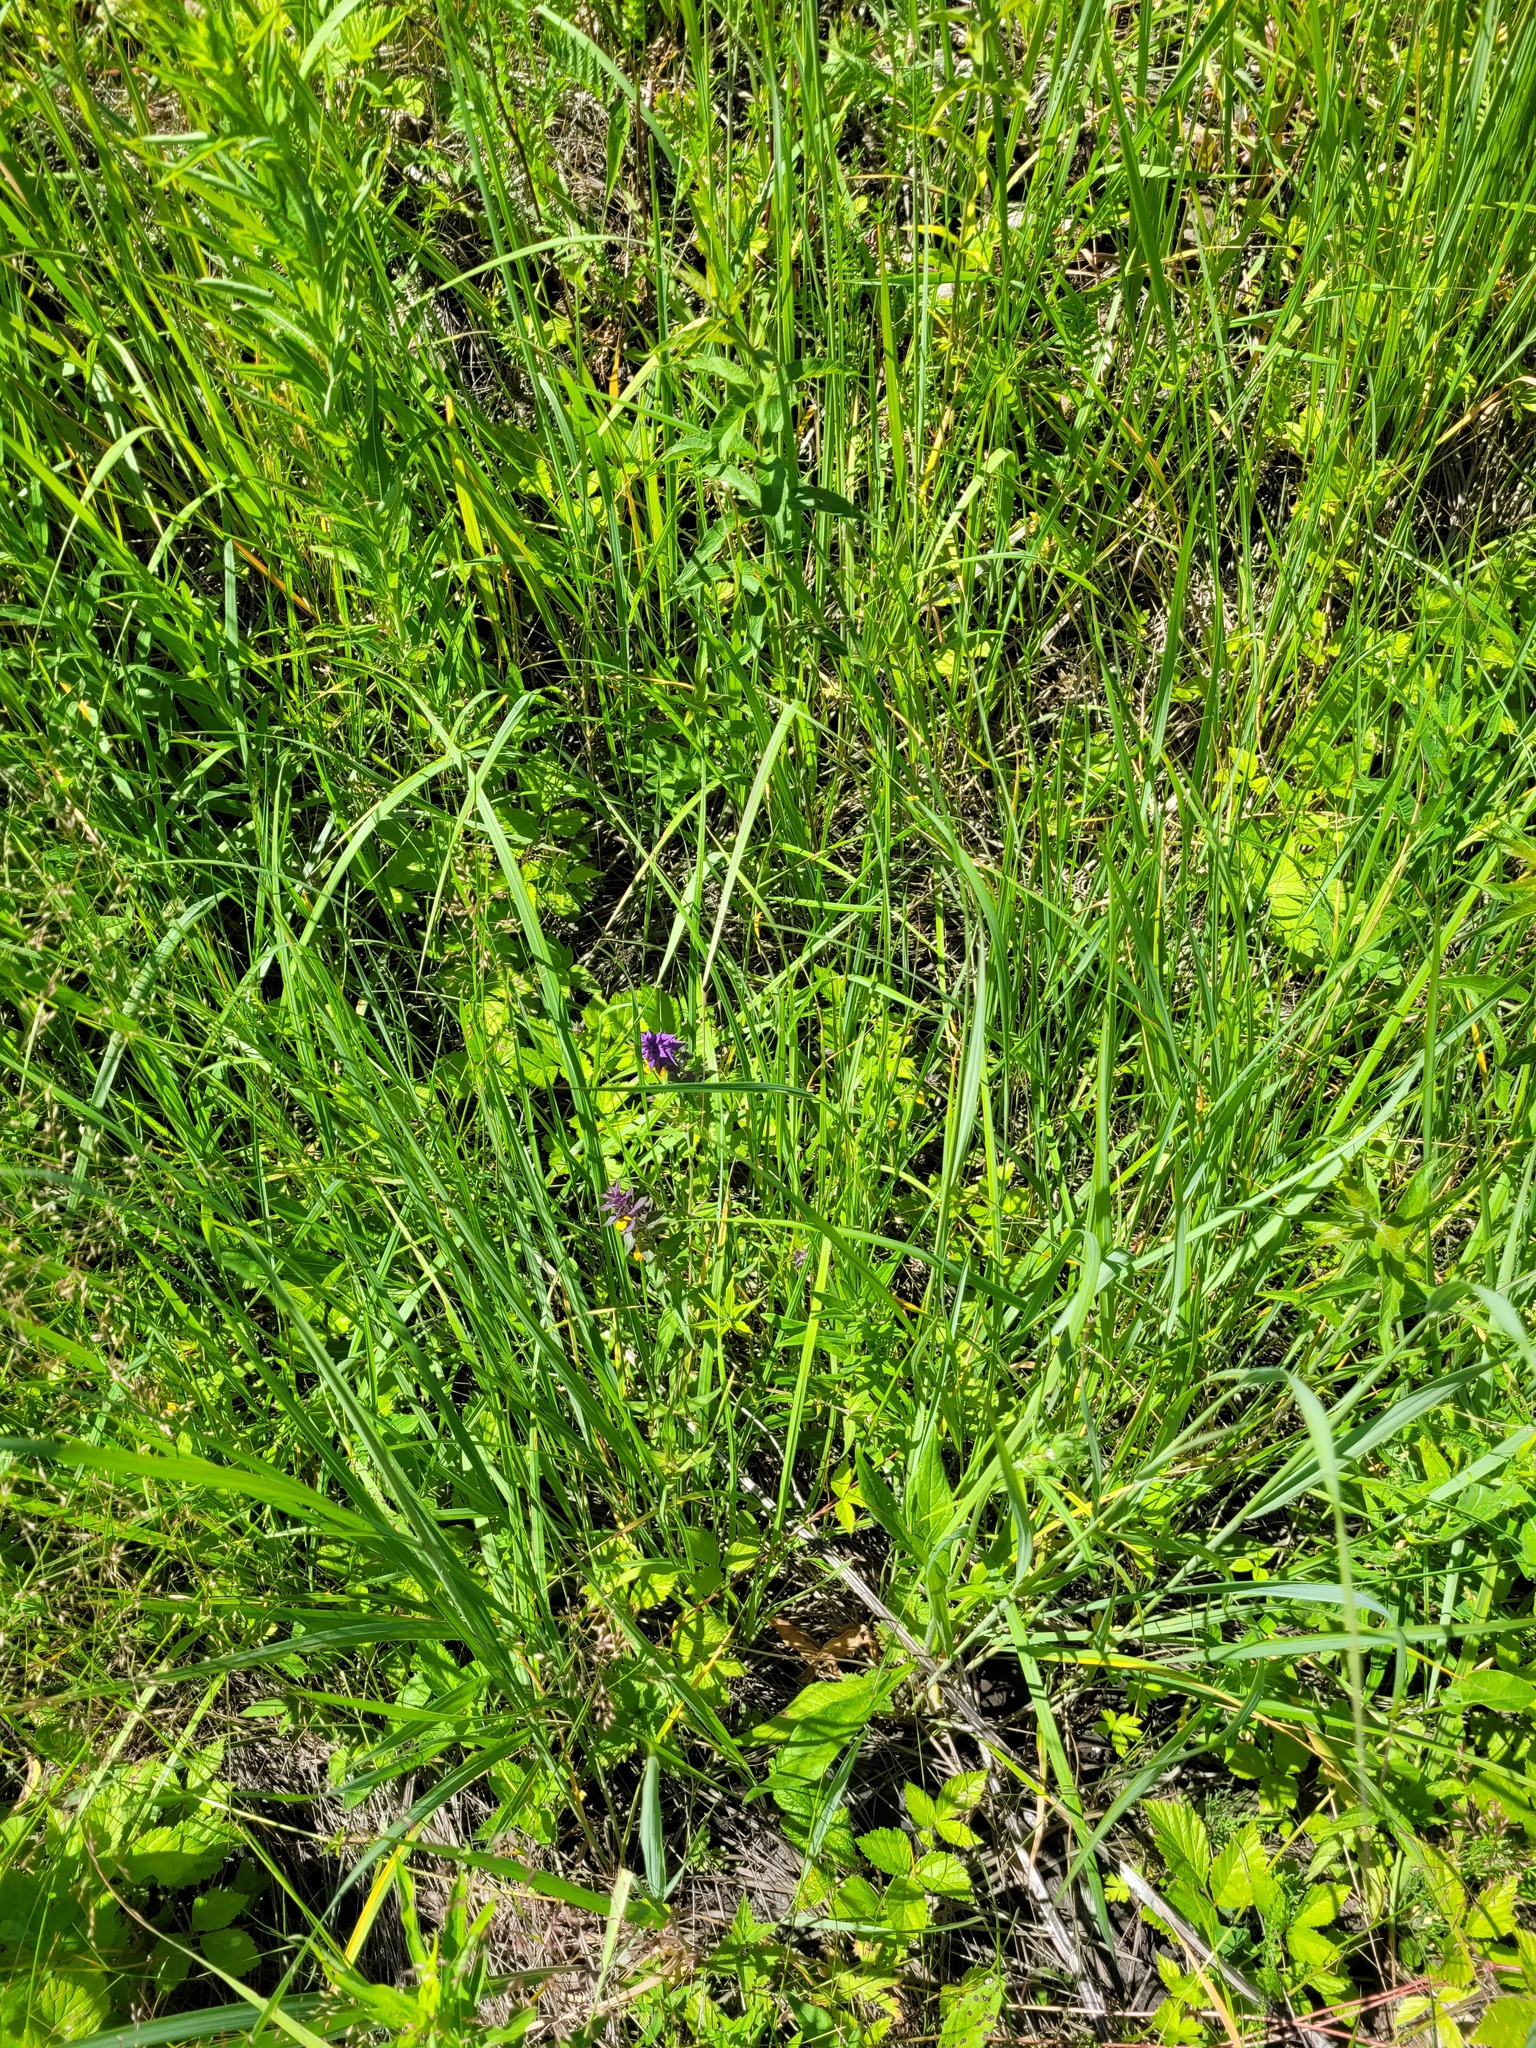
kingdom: Plantae
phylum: Tracheophyta
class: Magnoliopsida
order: Lamiales
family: Orobanchaceae
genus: Melampyrum
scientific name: Melampyrum nemorosum
